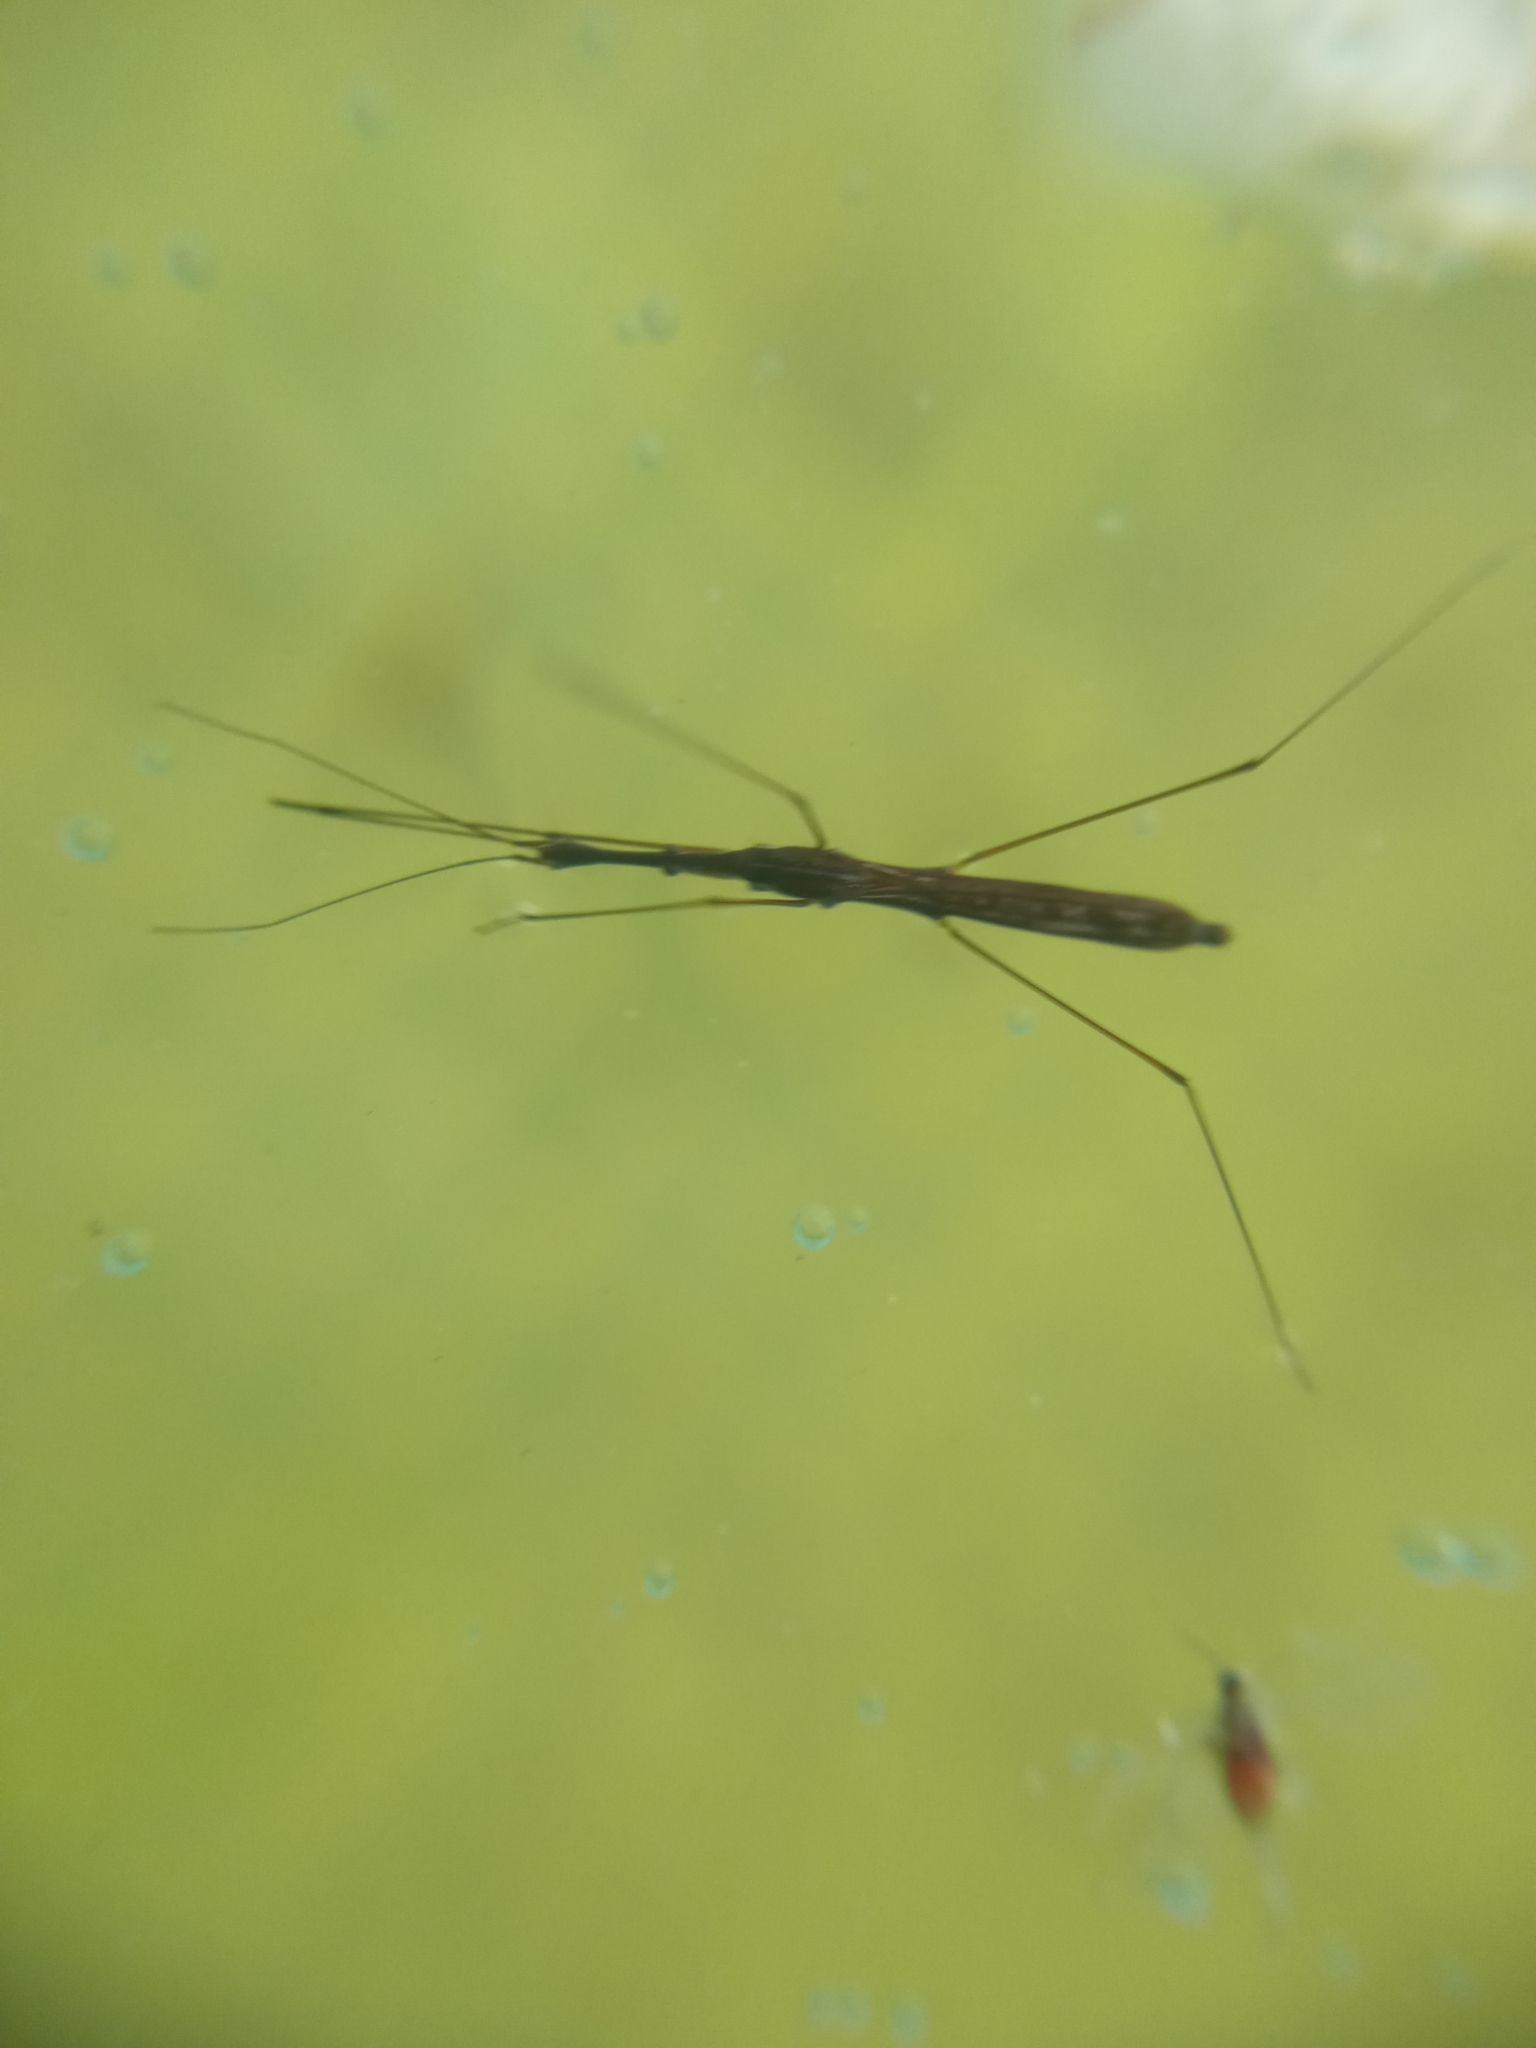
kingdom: Animalia
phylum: Arthropoda
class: Insecta
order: Hemiptera
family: Hydrometridae
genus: Hydrometra
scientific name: Hydrometra stagnorum
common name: Water measurer
